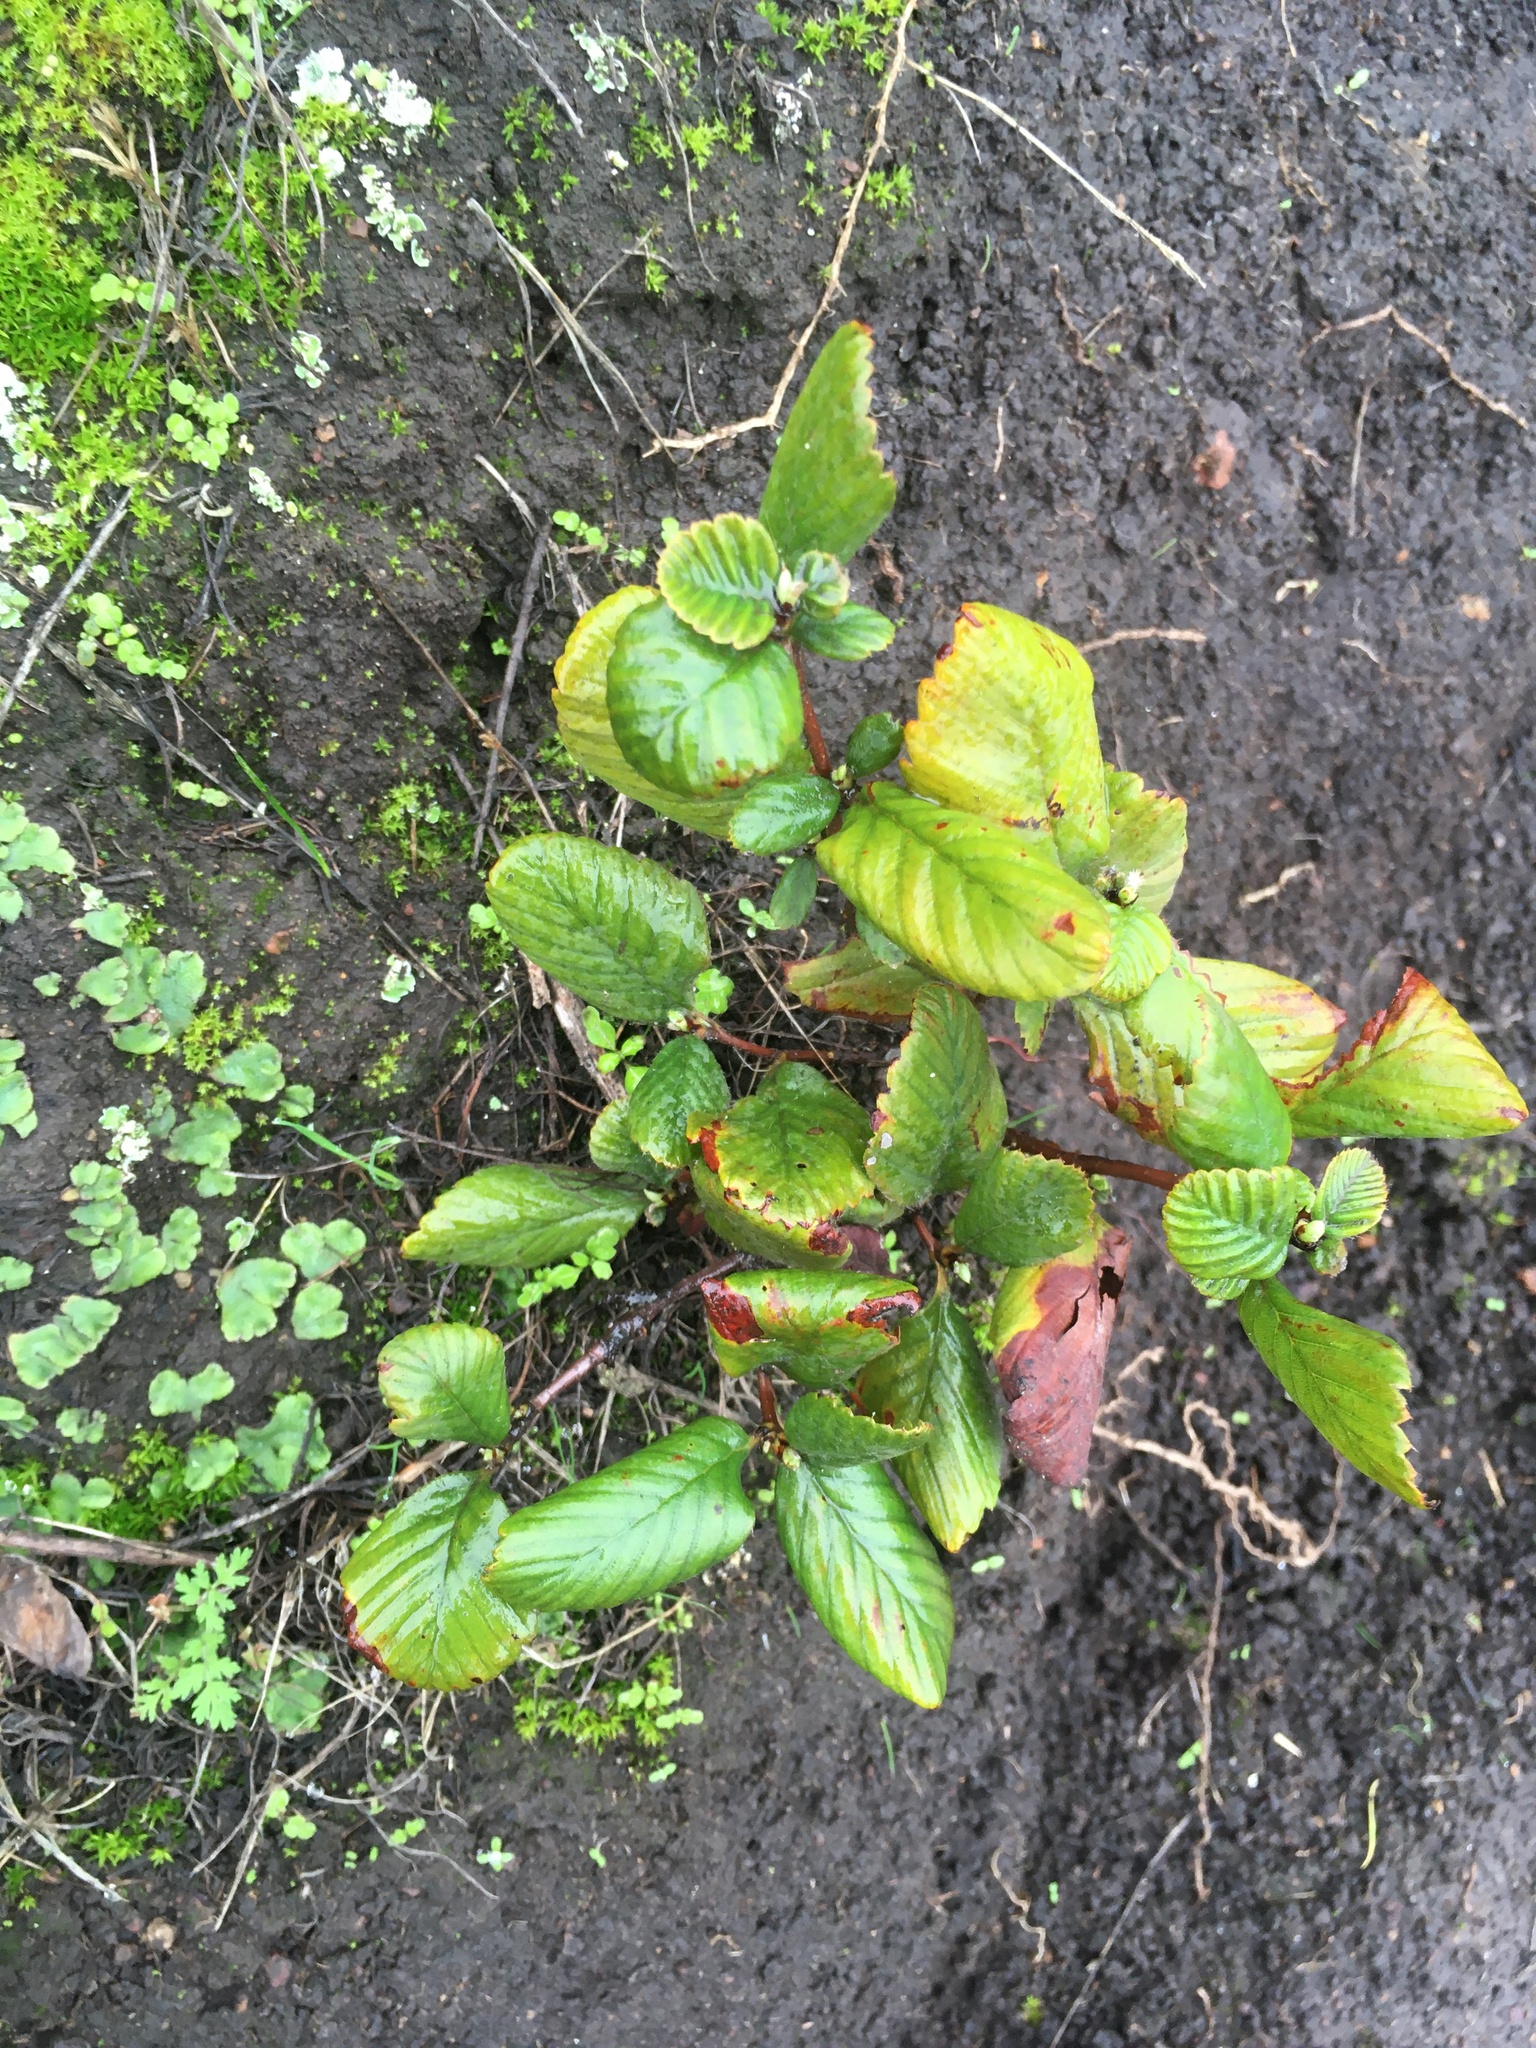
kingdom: Plantae
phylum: Tracheophyta
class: Magnoliopsida
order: Rosales
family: Rosaceae
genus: Cercocarpus
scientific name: Cercocarpus betuloides
